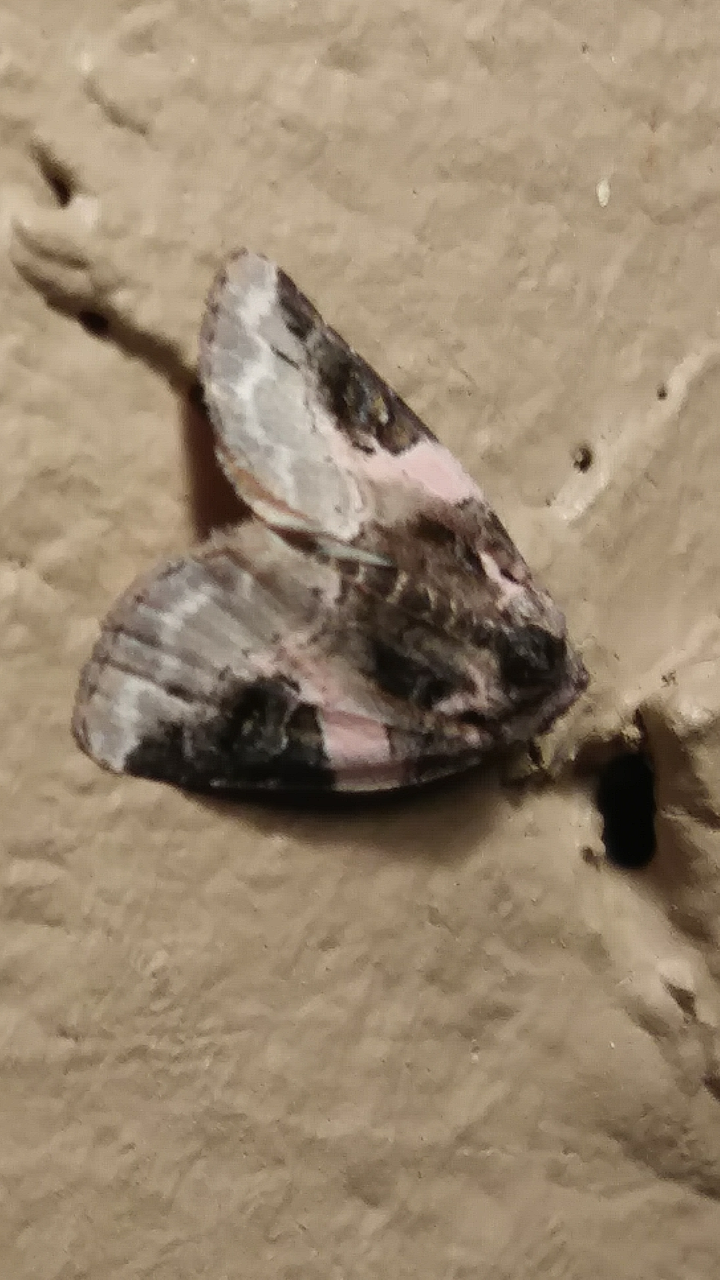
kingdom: Animalia
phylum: Arthropoda
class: Insecta
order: Lepidoptera
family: Noctuidae
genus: Pseudeustrotia
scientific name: Pseudeustrotia carneola
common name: Pink-barred lithacodia moth
